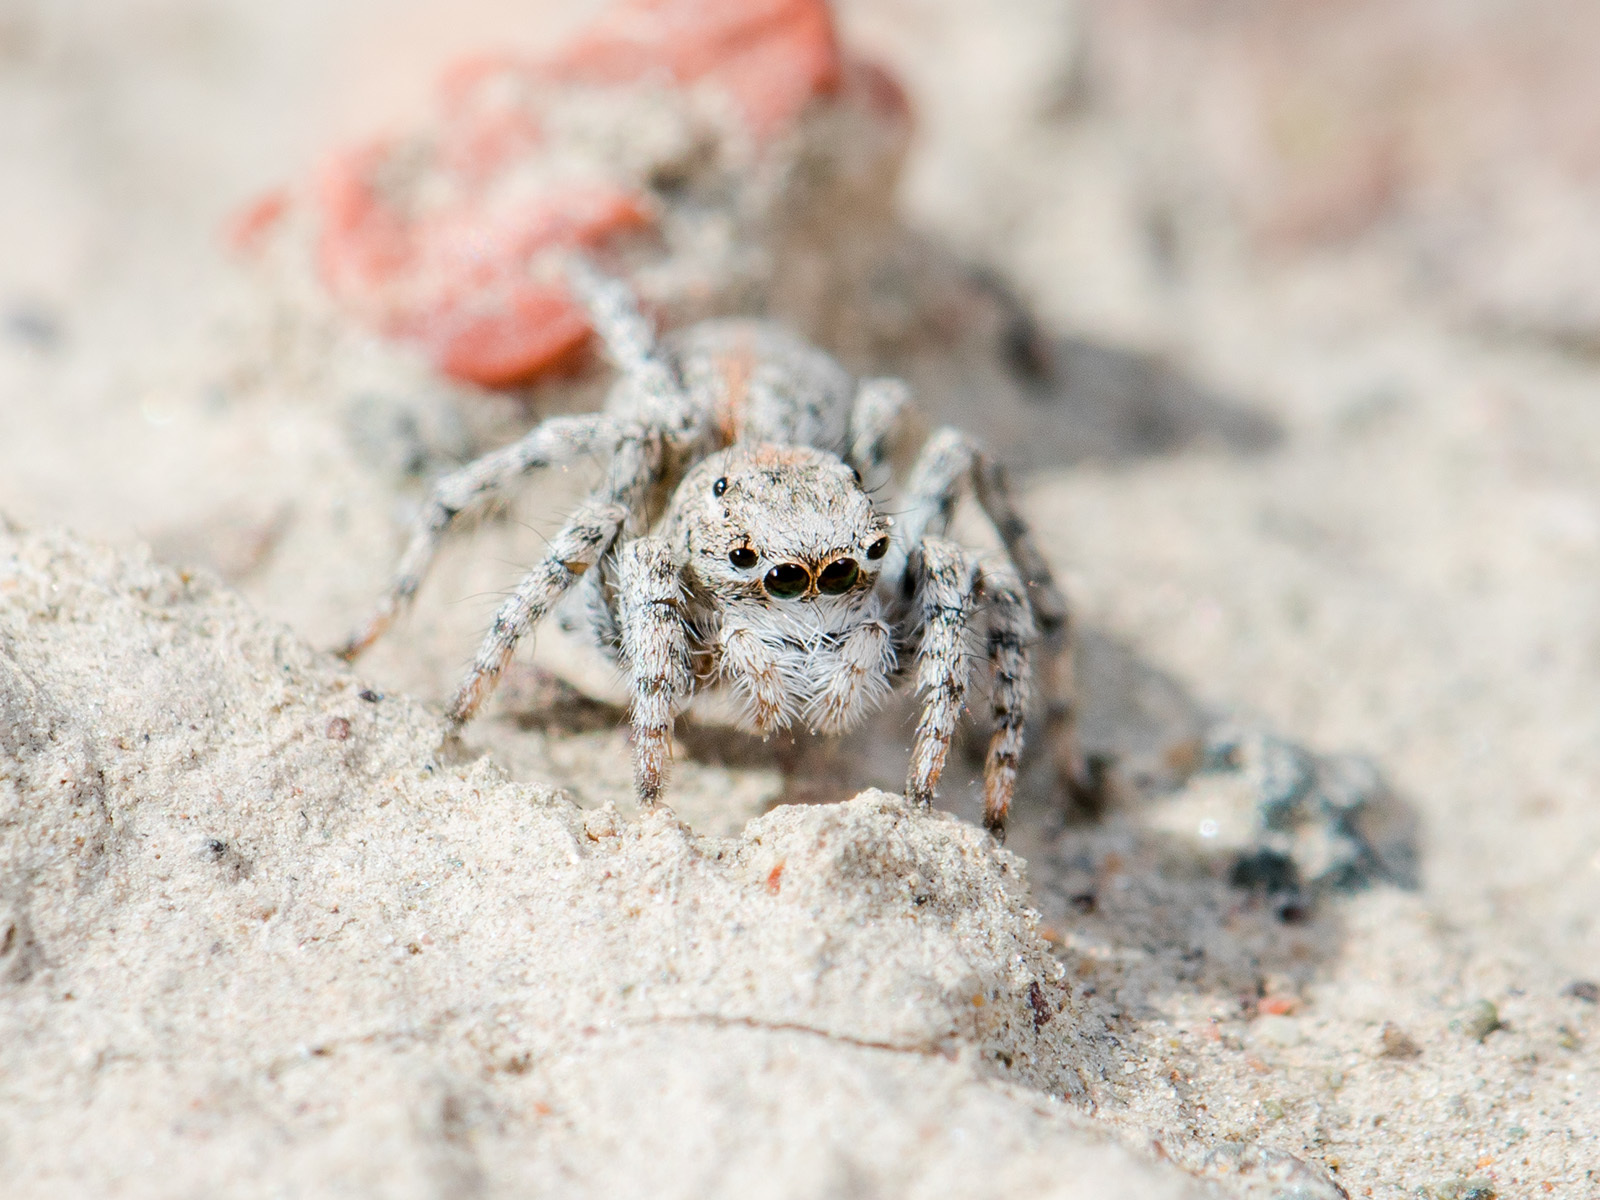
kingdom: Animalia
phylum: Arthropoda
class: Arachnida
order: Araneae
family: Salticidae
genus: Aelurillus
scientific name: Aelurillus dubatolovi
